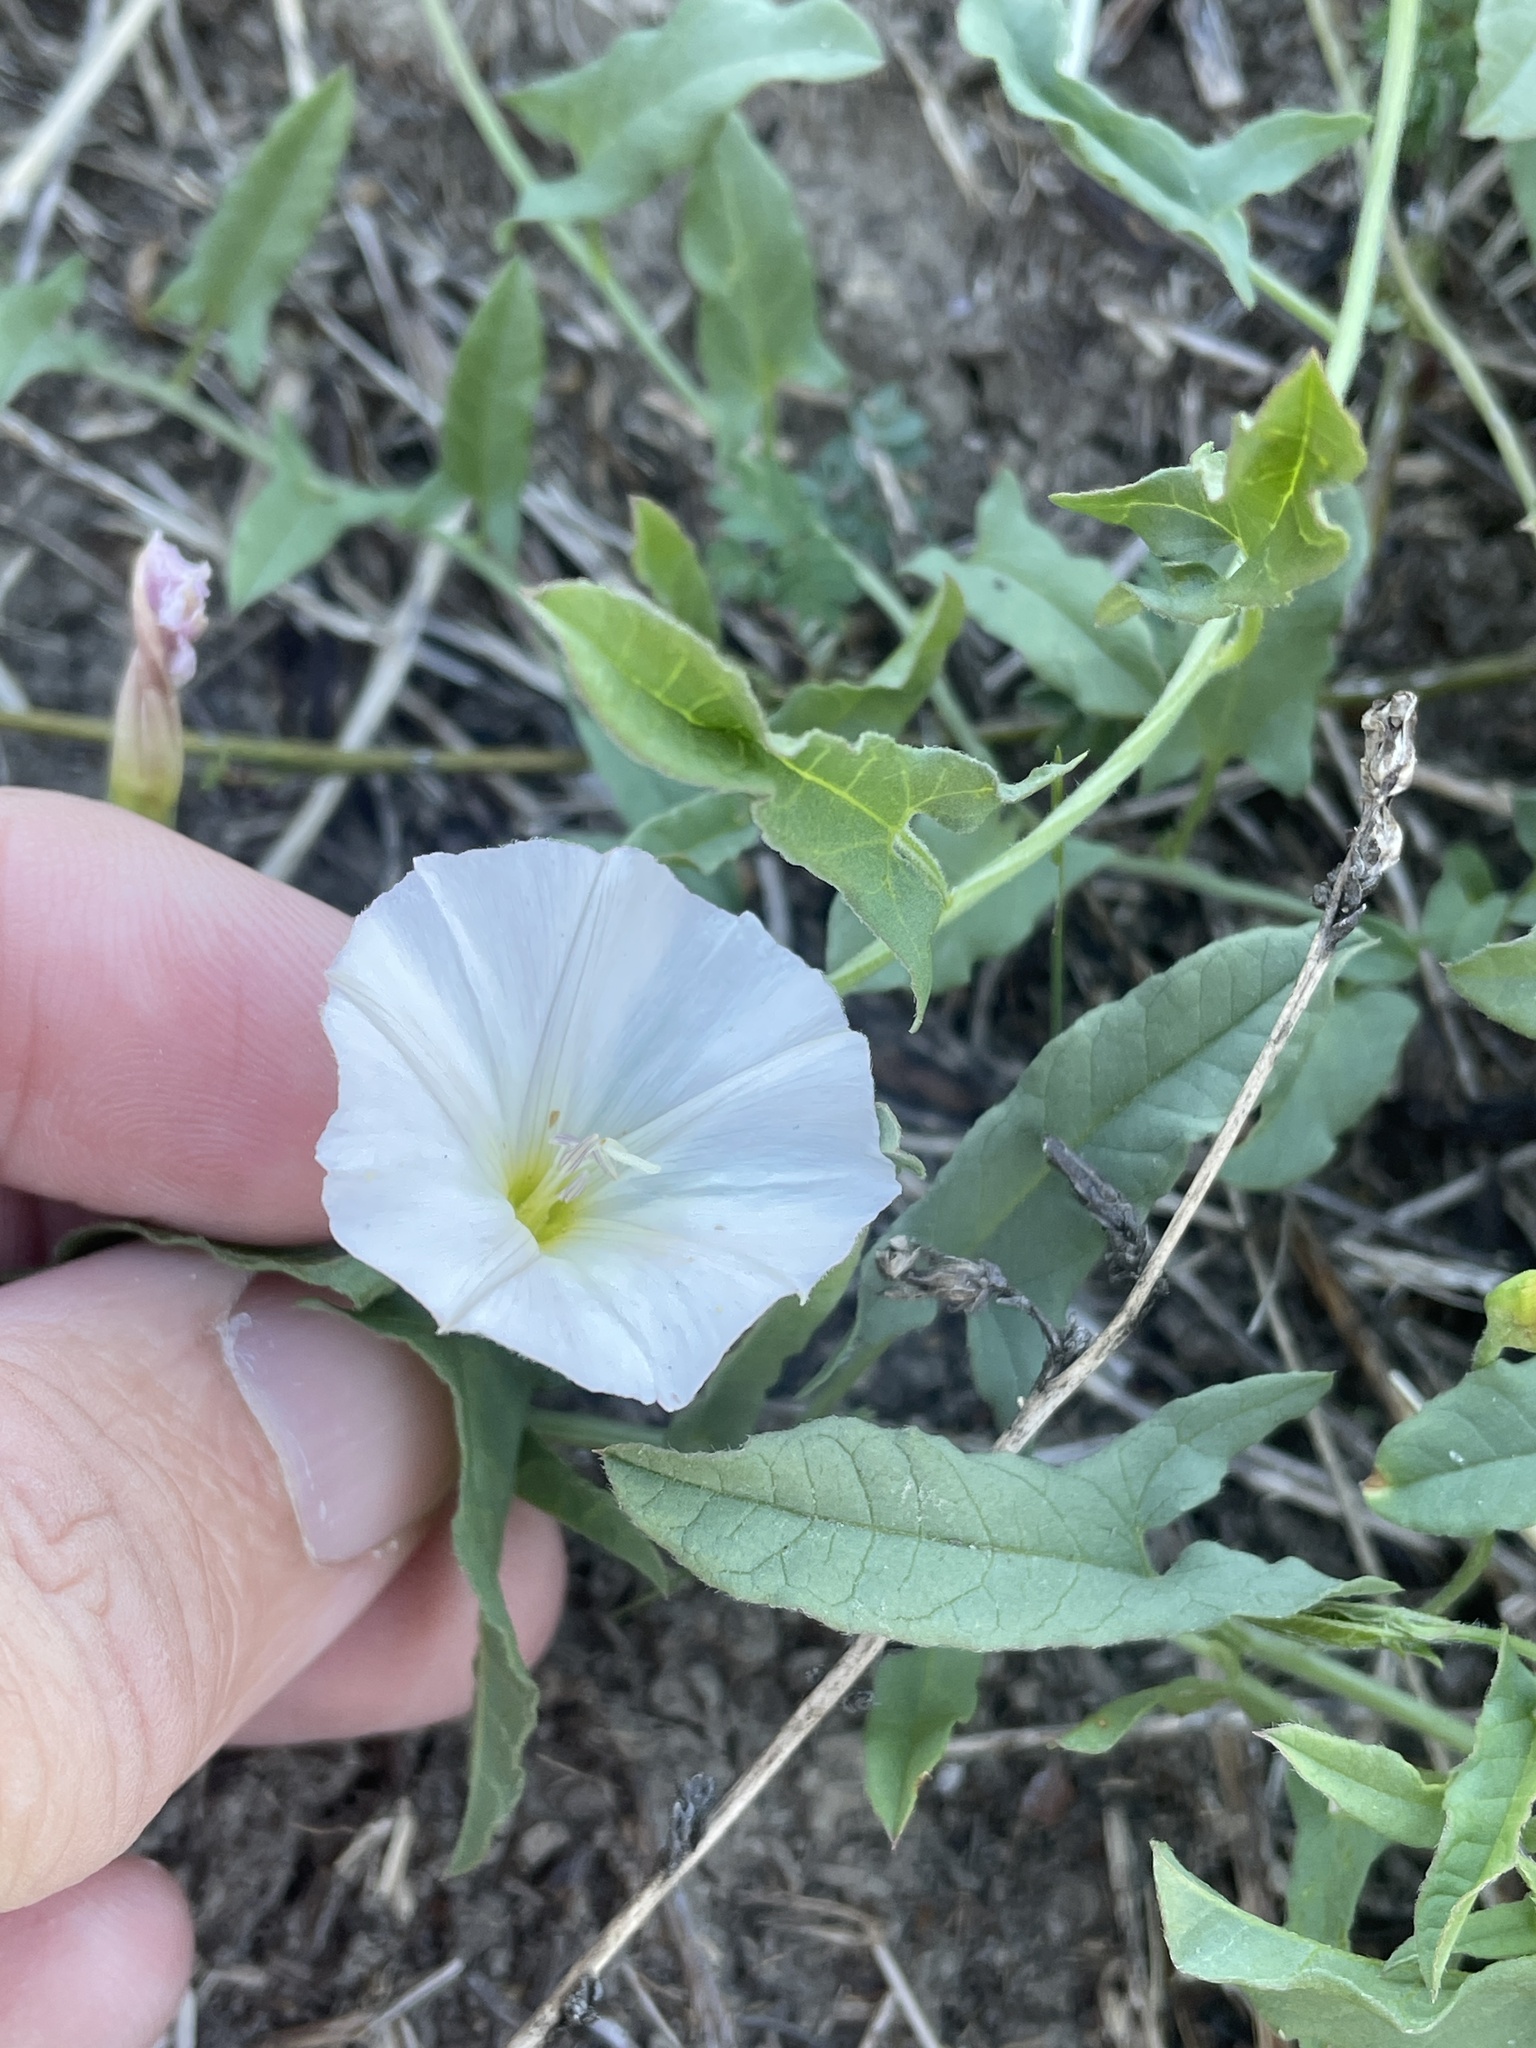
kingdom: Plantae
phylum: Tracheophyta
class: Magnoliopsida
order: Solanales
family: Convolvulaceae
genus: Convolvulus
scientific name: Convolvulus arvensis
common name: Field bindweed
